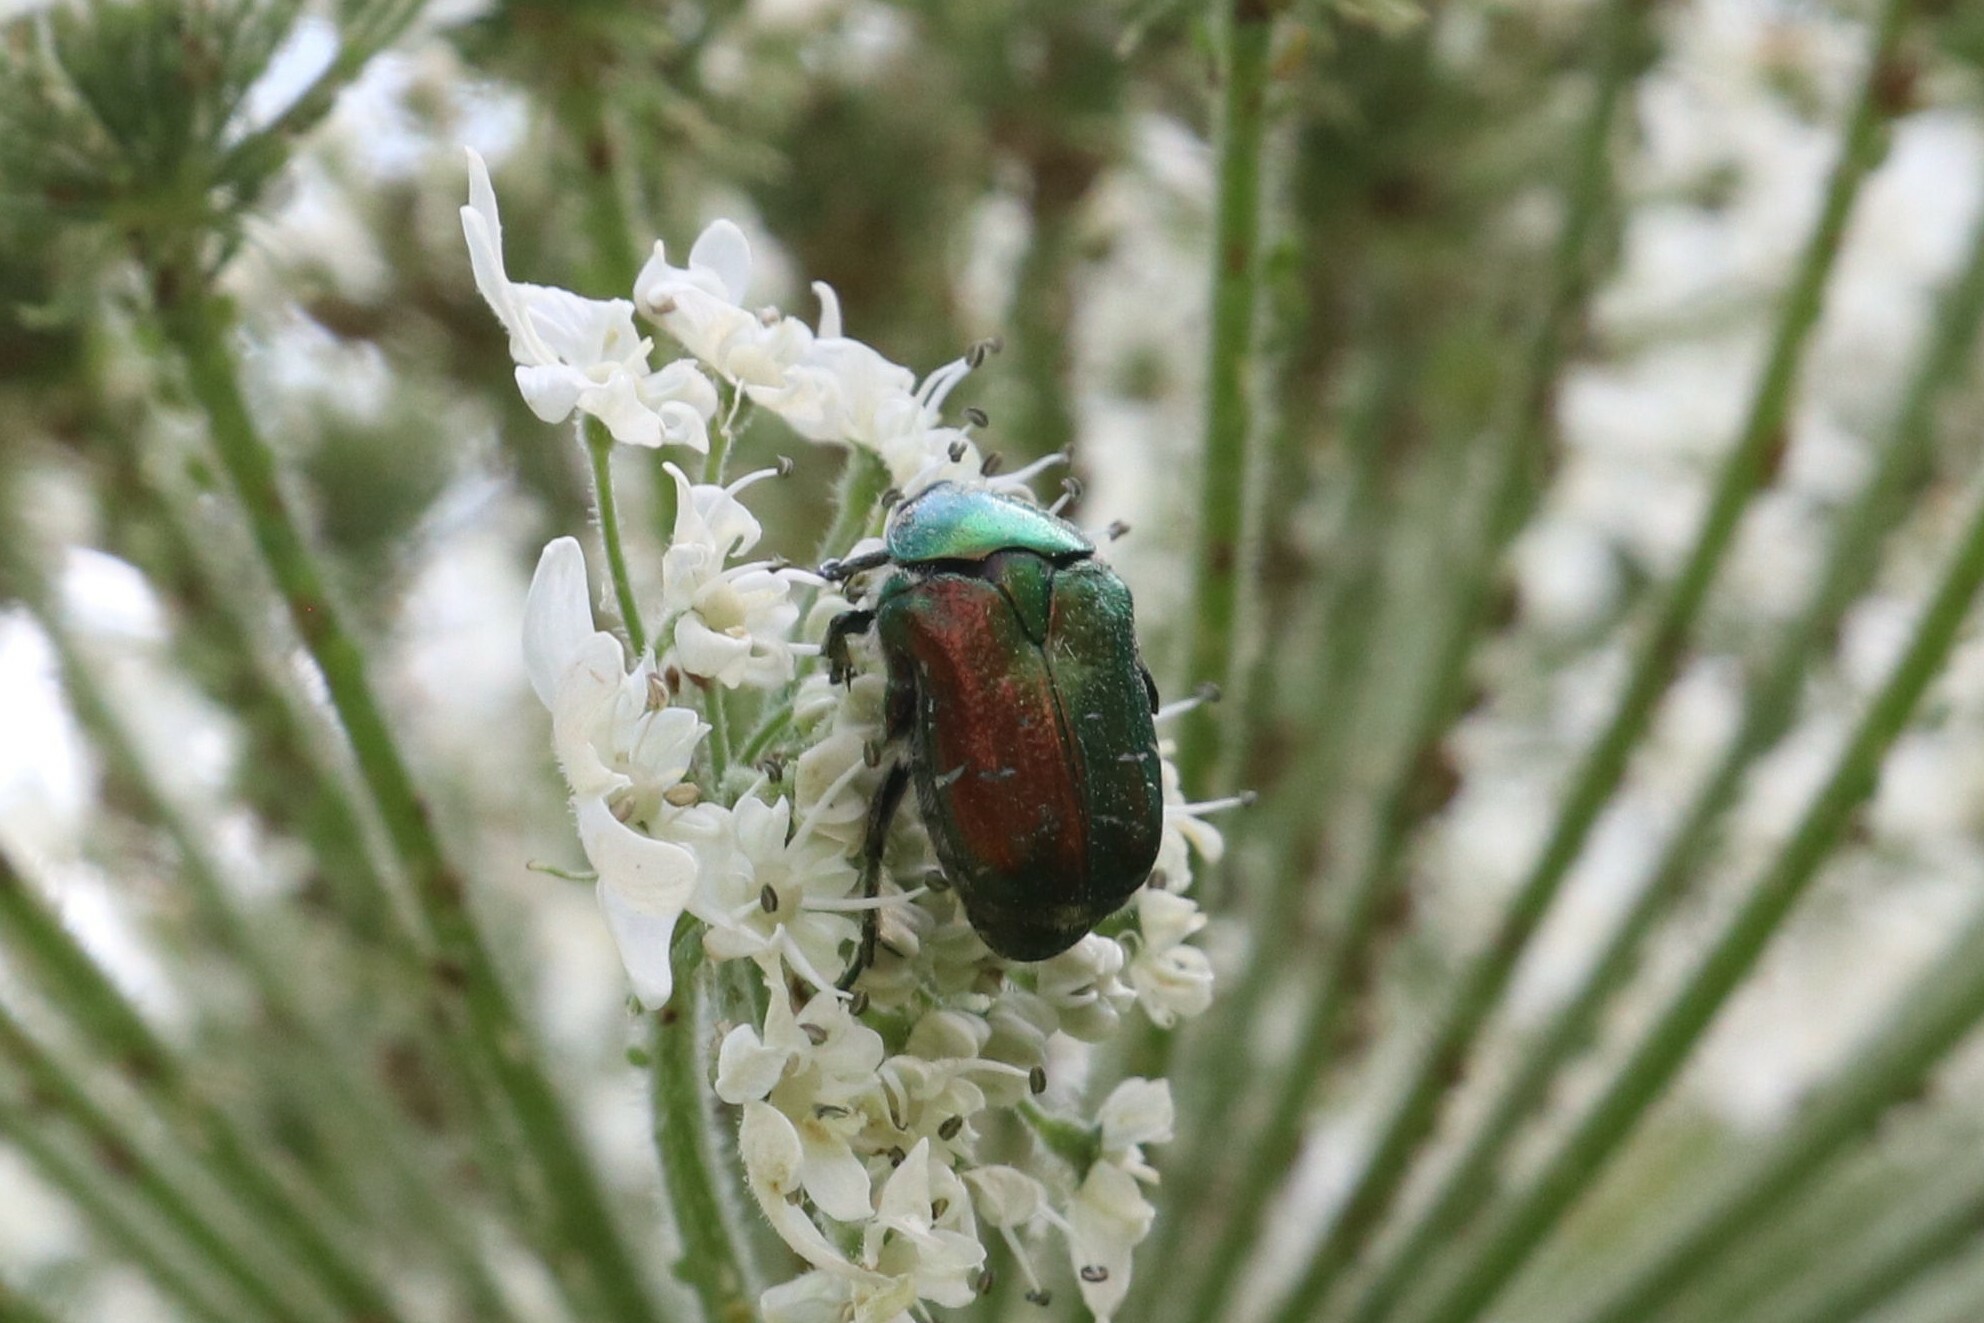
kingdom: Animalia
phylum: Arthropoda
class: Insecta
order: Coleoptera
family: Scarabaeidae
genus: Cetonia
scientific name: Cetonia aurata
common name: Rose chafer
